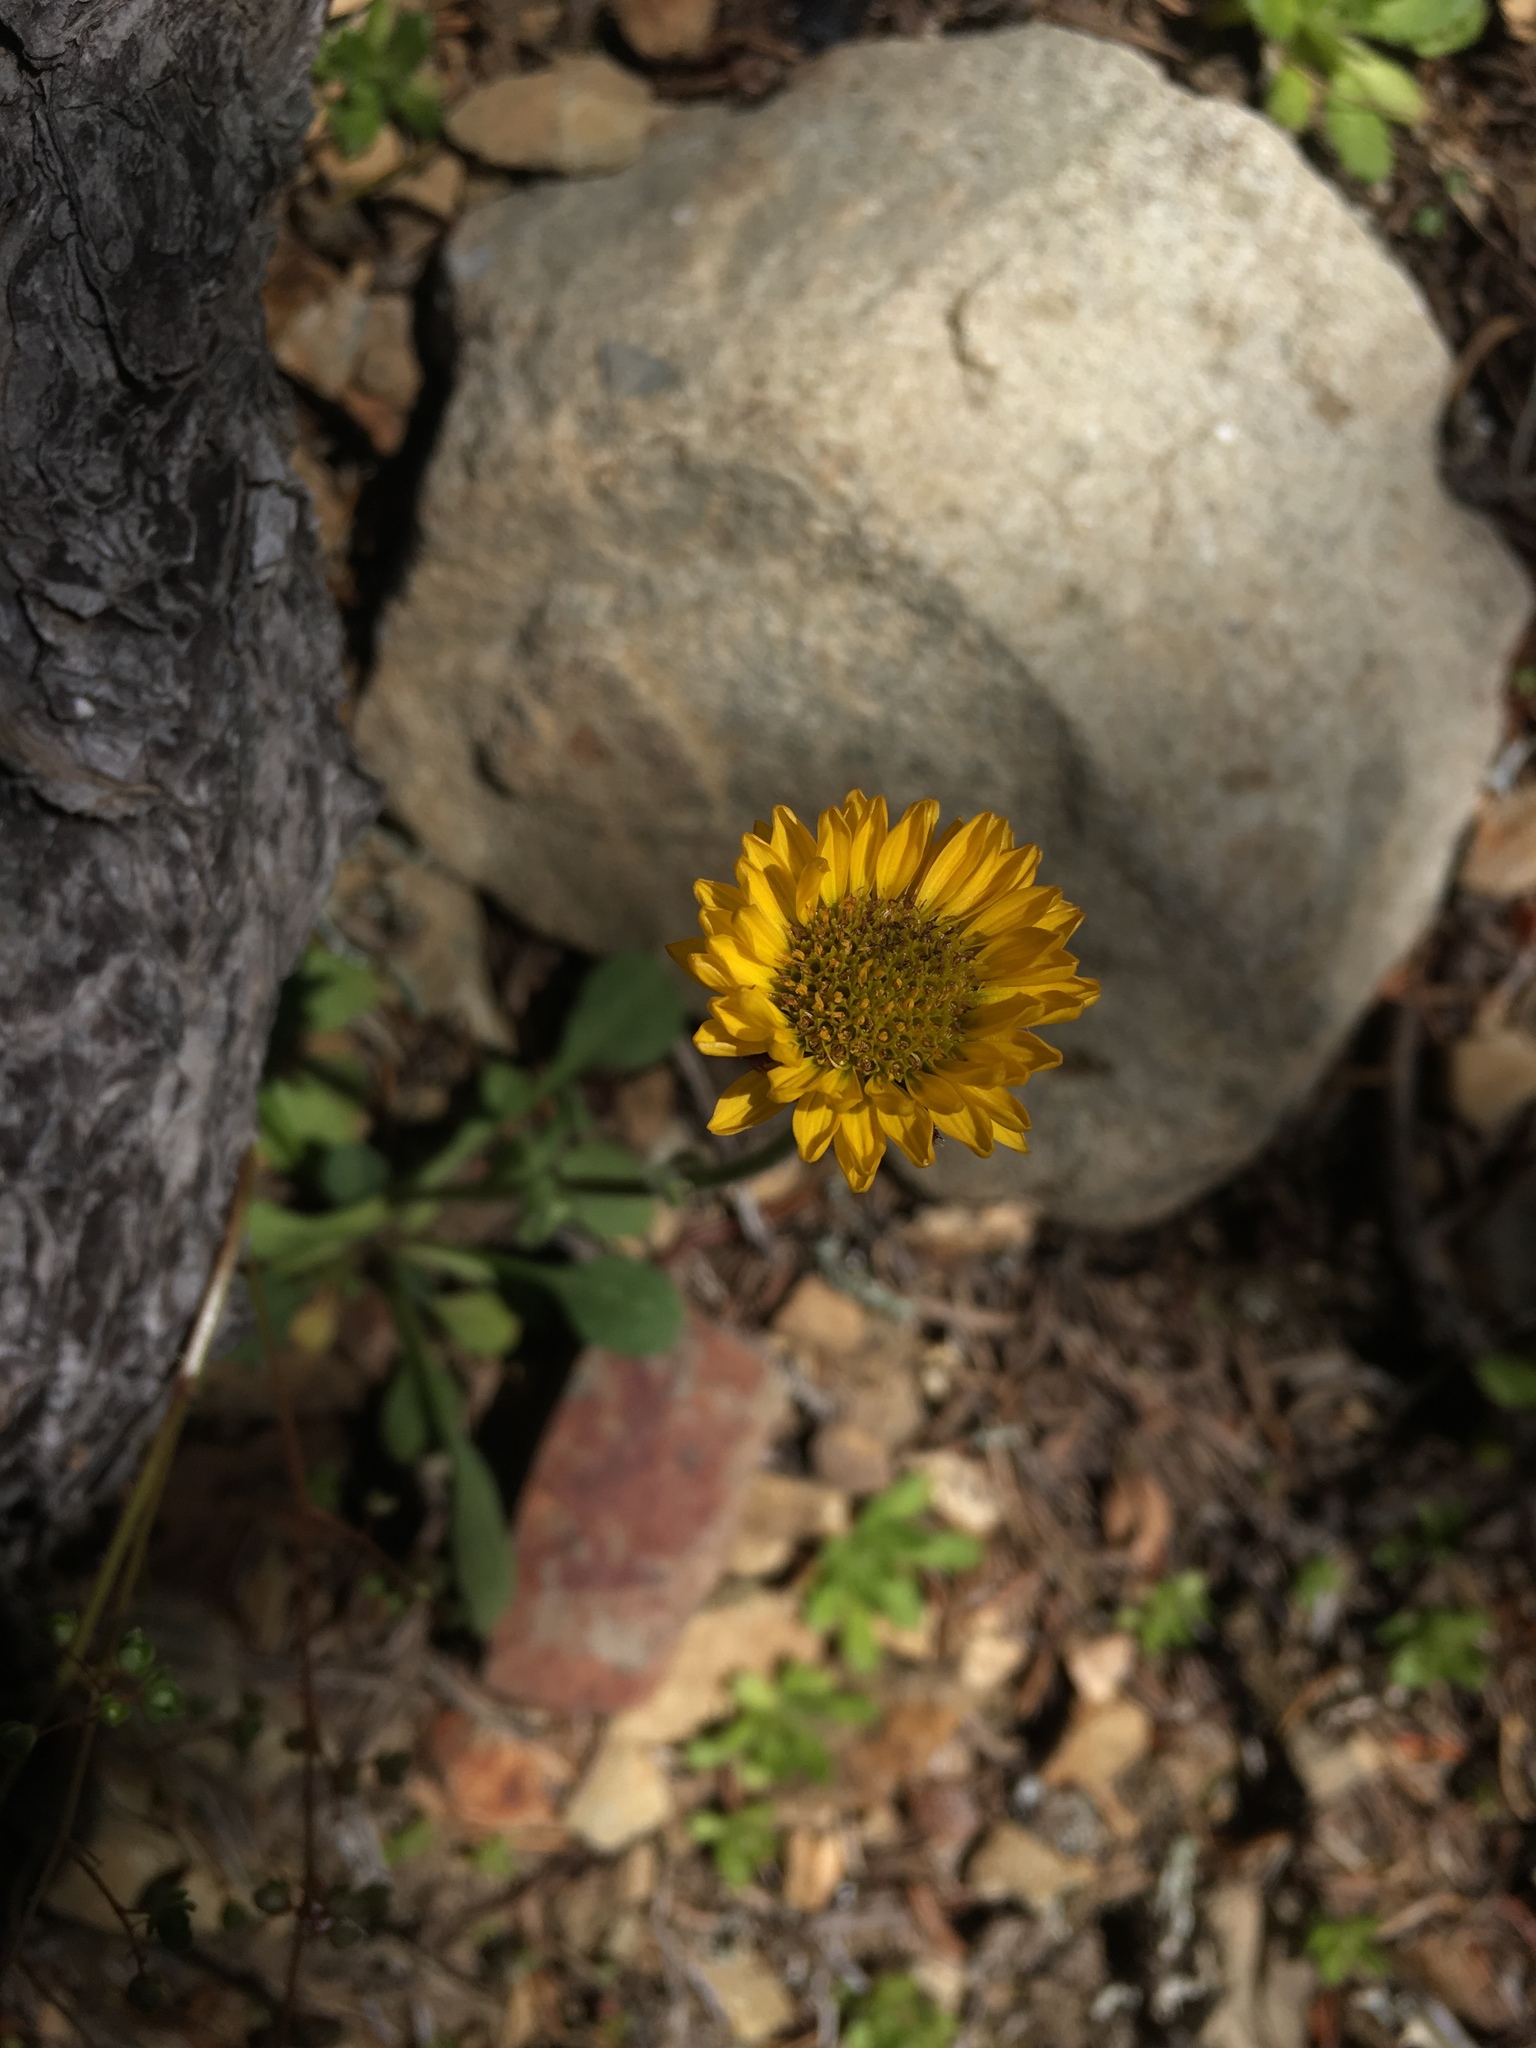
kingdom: Plantae
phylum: Tracheophyta
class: Magnoliopsida
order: Asterales
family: Asteraceae
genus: Erigeron
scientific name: Erigeron aureus
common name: Alpine yellow fleabane
